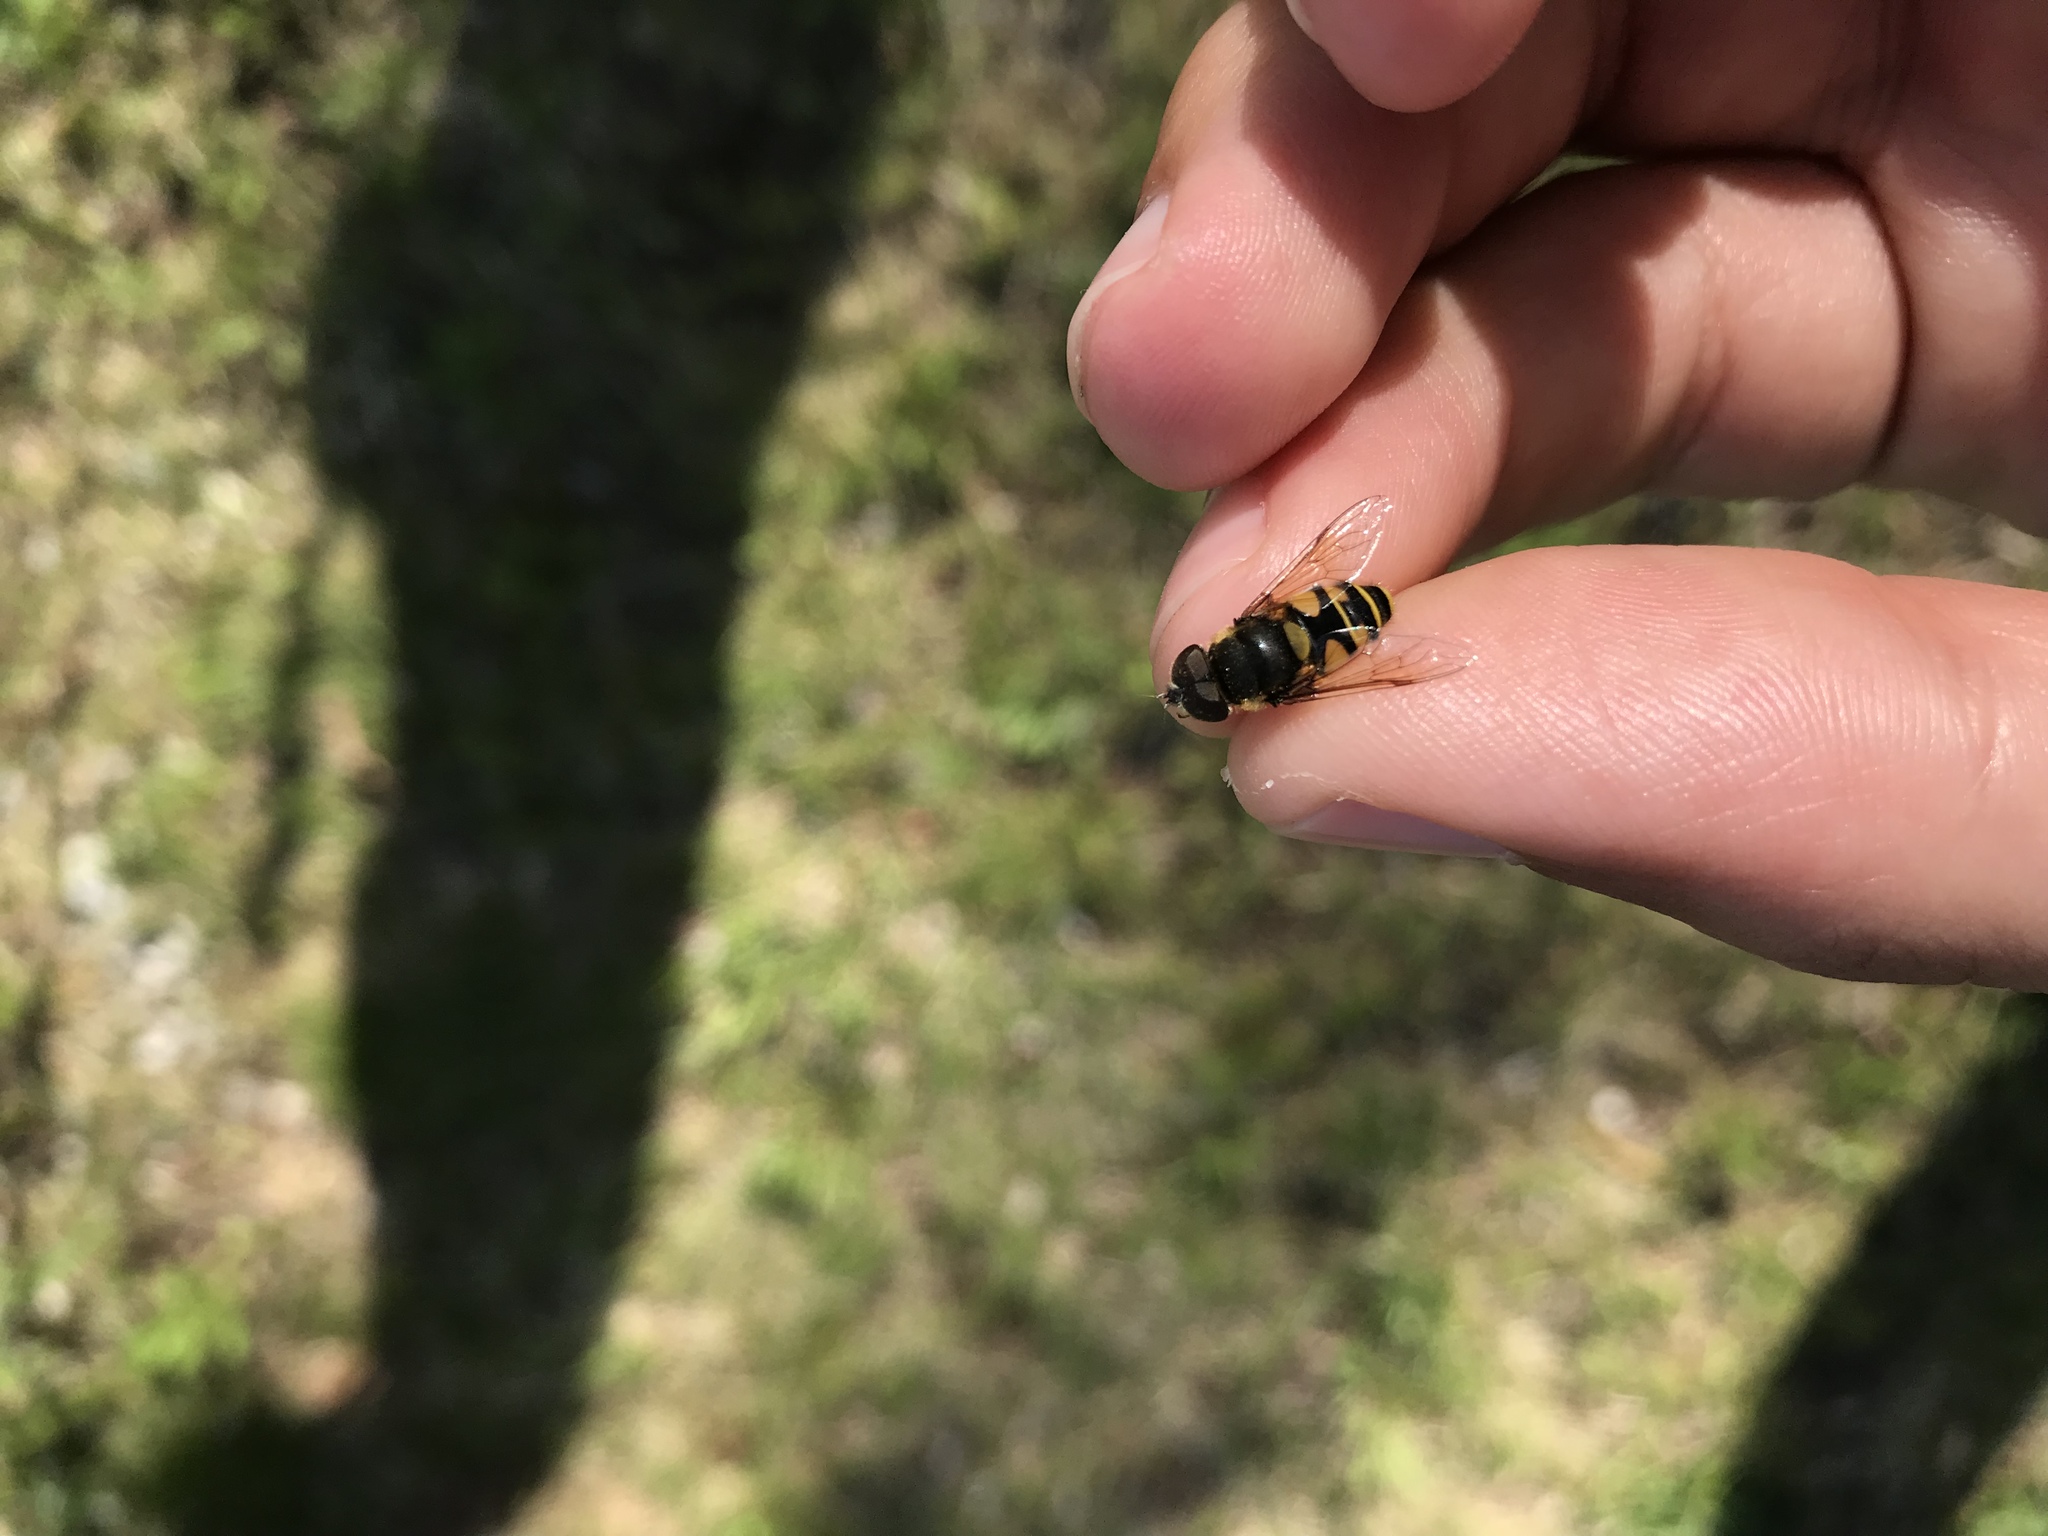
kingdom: Animalia
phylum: Arthropoda
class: Insecta
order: Diptera
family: Syrphidae
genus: Eristalis
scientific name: Eristalis transversa
